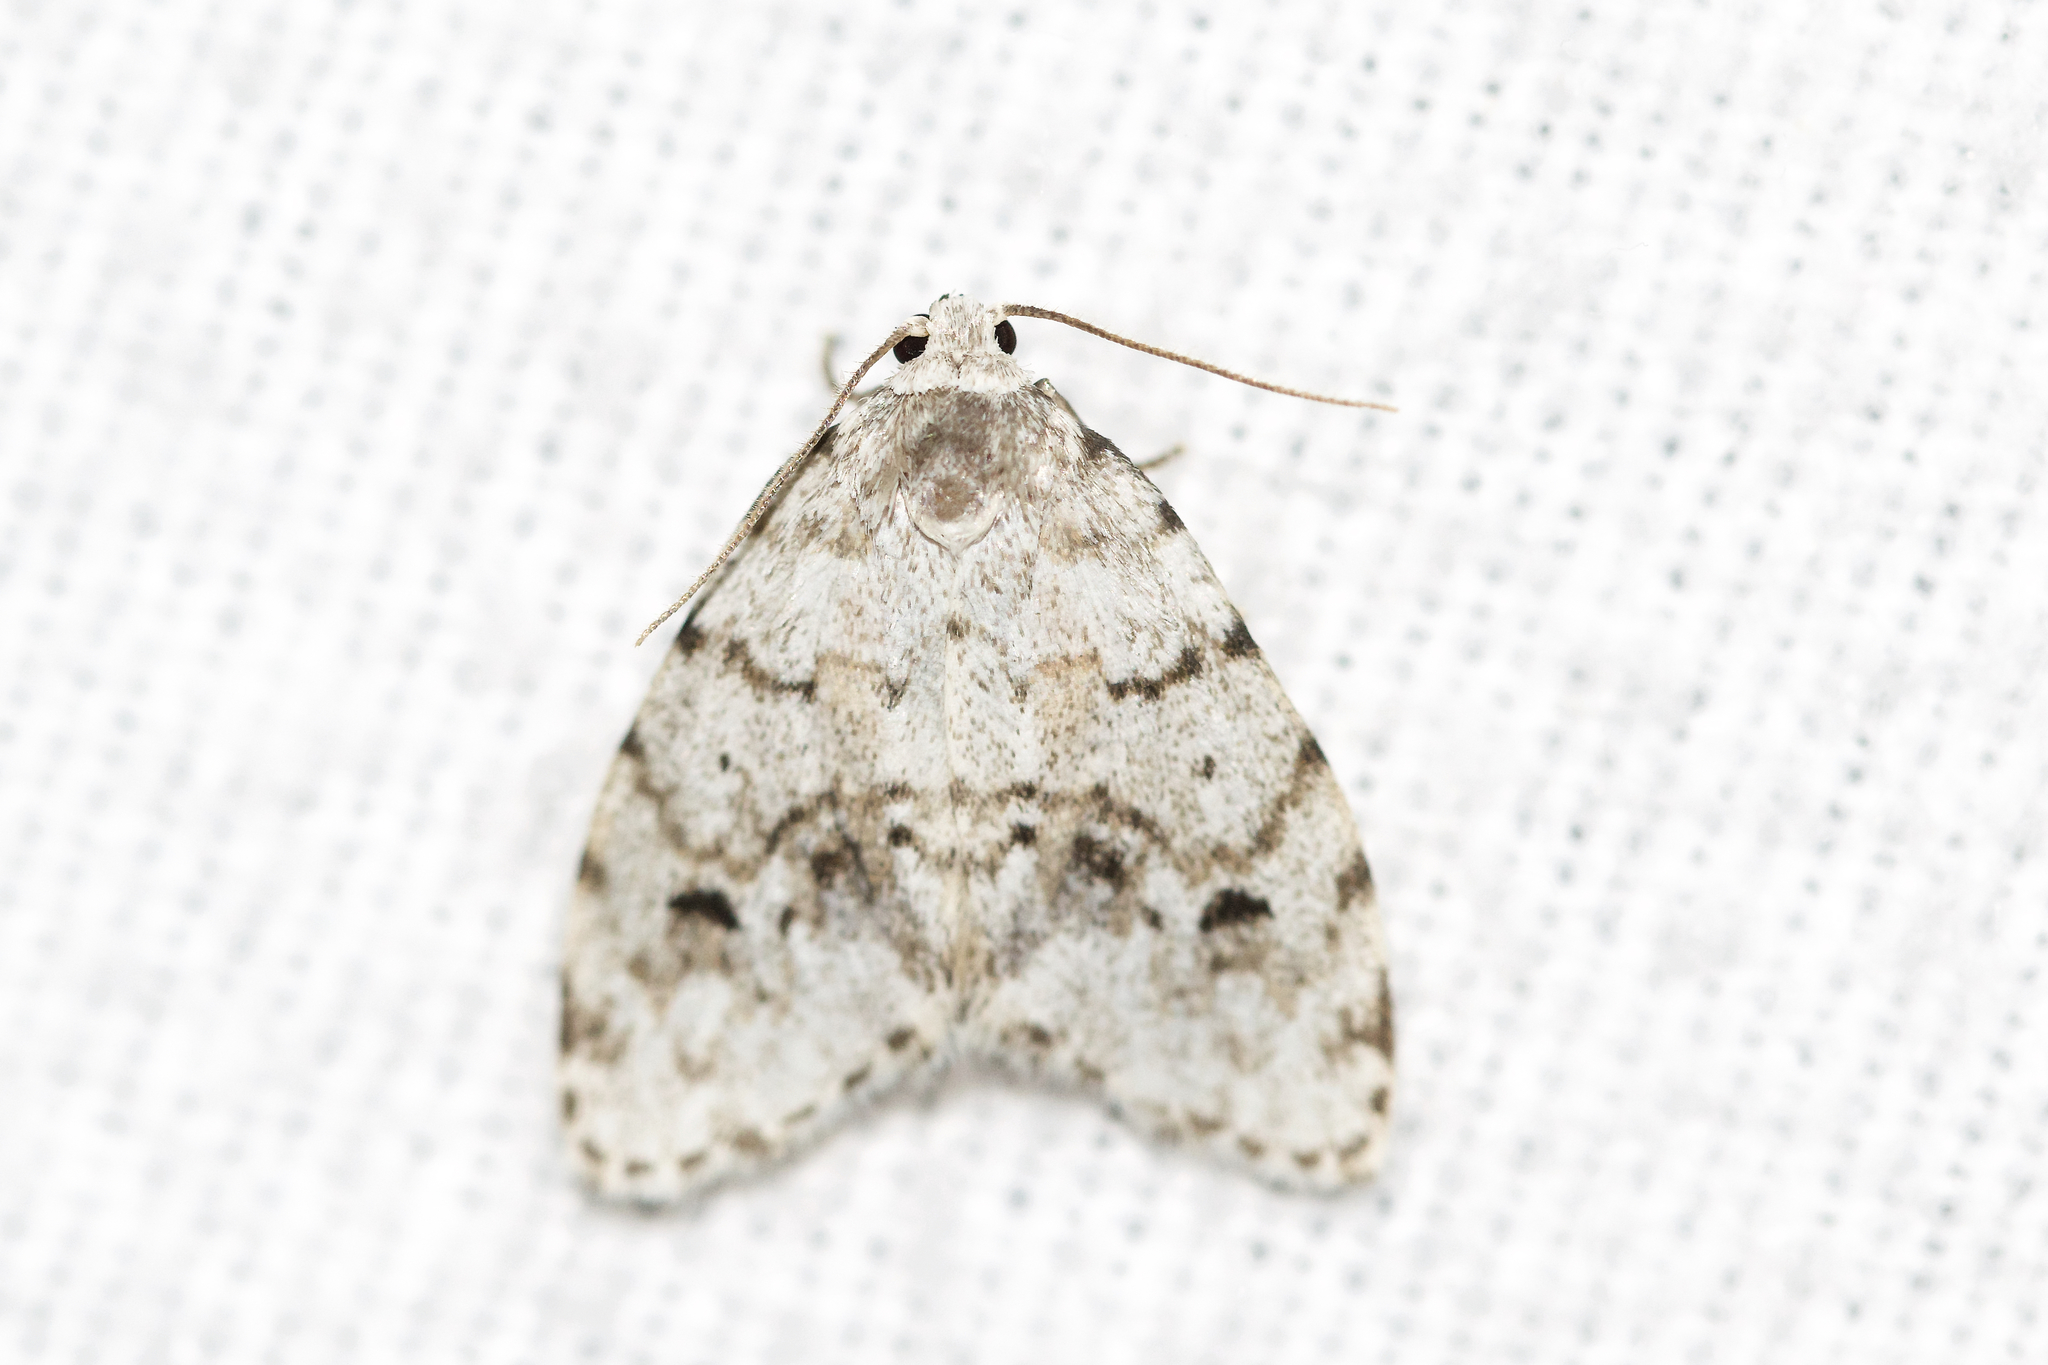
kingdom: Animalia
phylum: Arthropoda
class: Insecta
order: Lepidoptera
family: Erebidae
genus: Clemensia
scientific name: Clemensia albata
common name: Little white lichen moth
